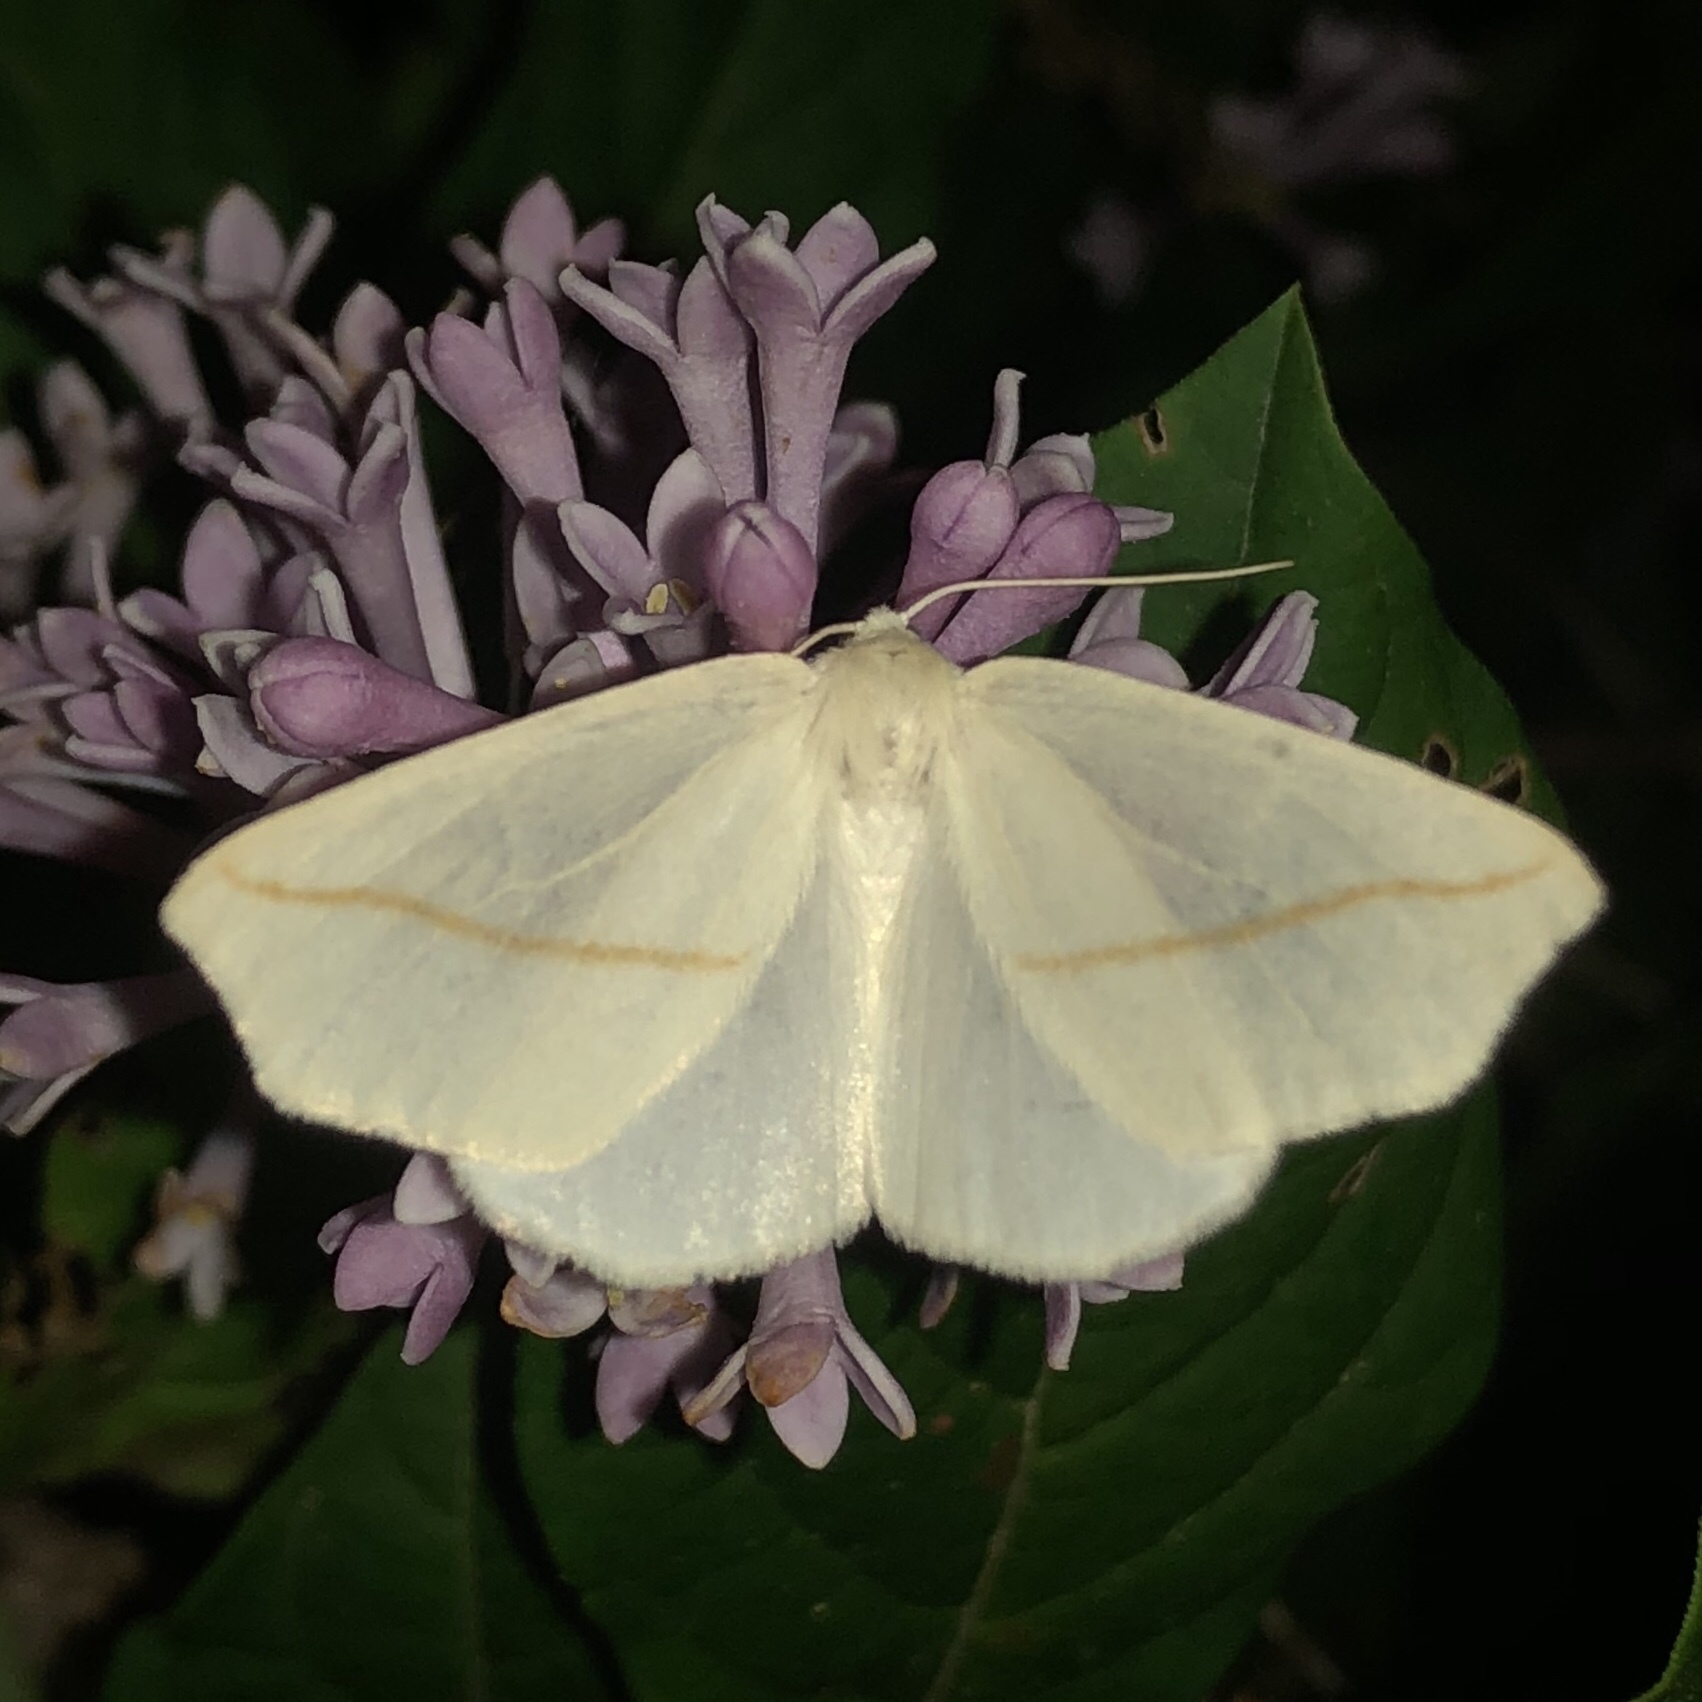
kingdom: Animalia
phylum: Arthropoda
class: Insecta
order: Lepidoptera
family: Geometridae
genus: Tetracis
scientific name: Tetracis cachexiata
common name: White slant-line
